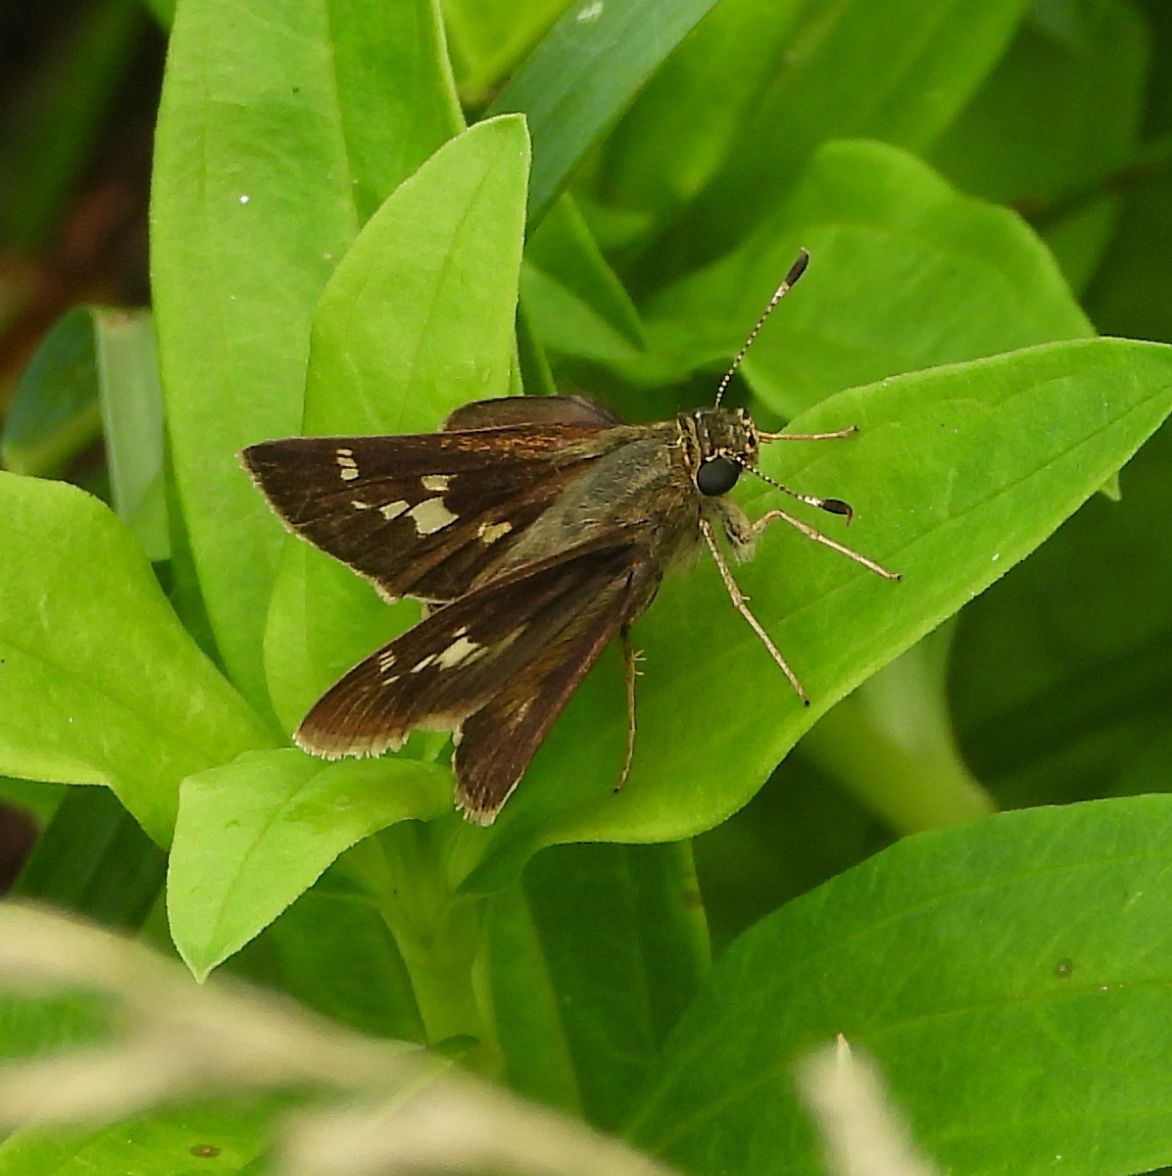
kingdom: Animalia
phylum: Arthropoda
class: Insecta
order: Lepidoptera
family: Hesperiidae
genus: Vernia
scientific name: Vernia verna
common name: Little glassywing
